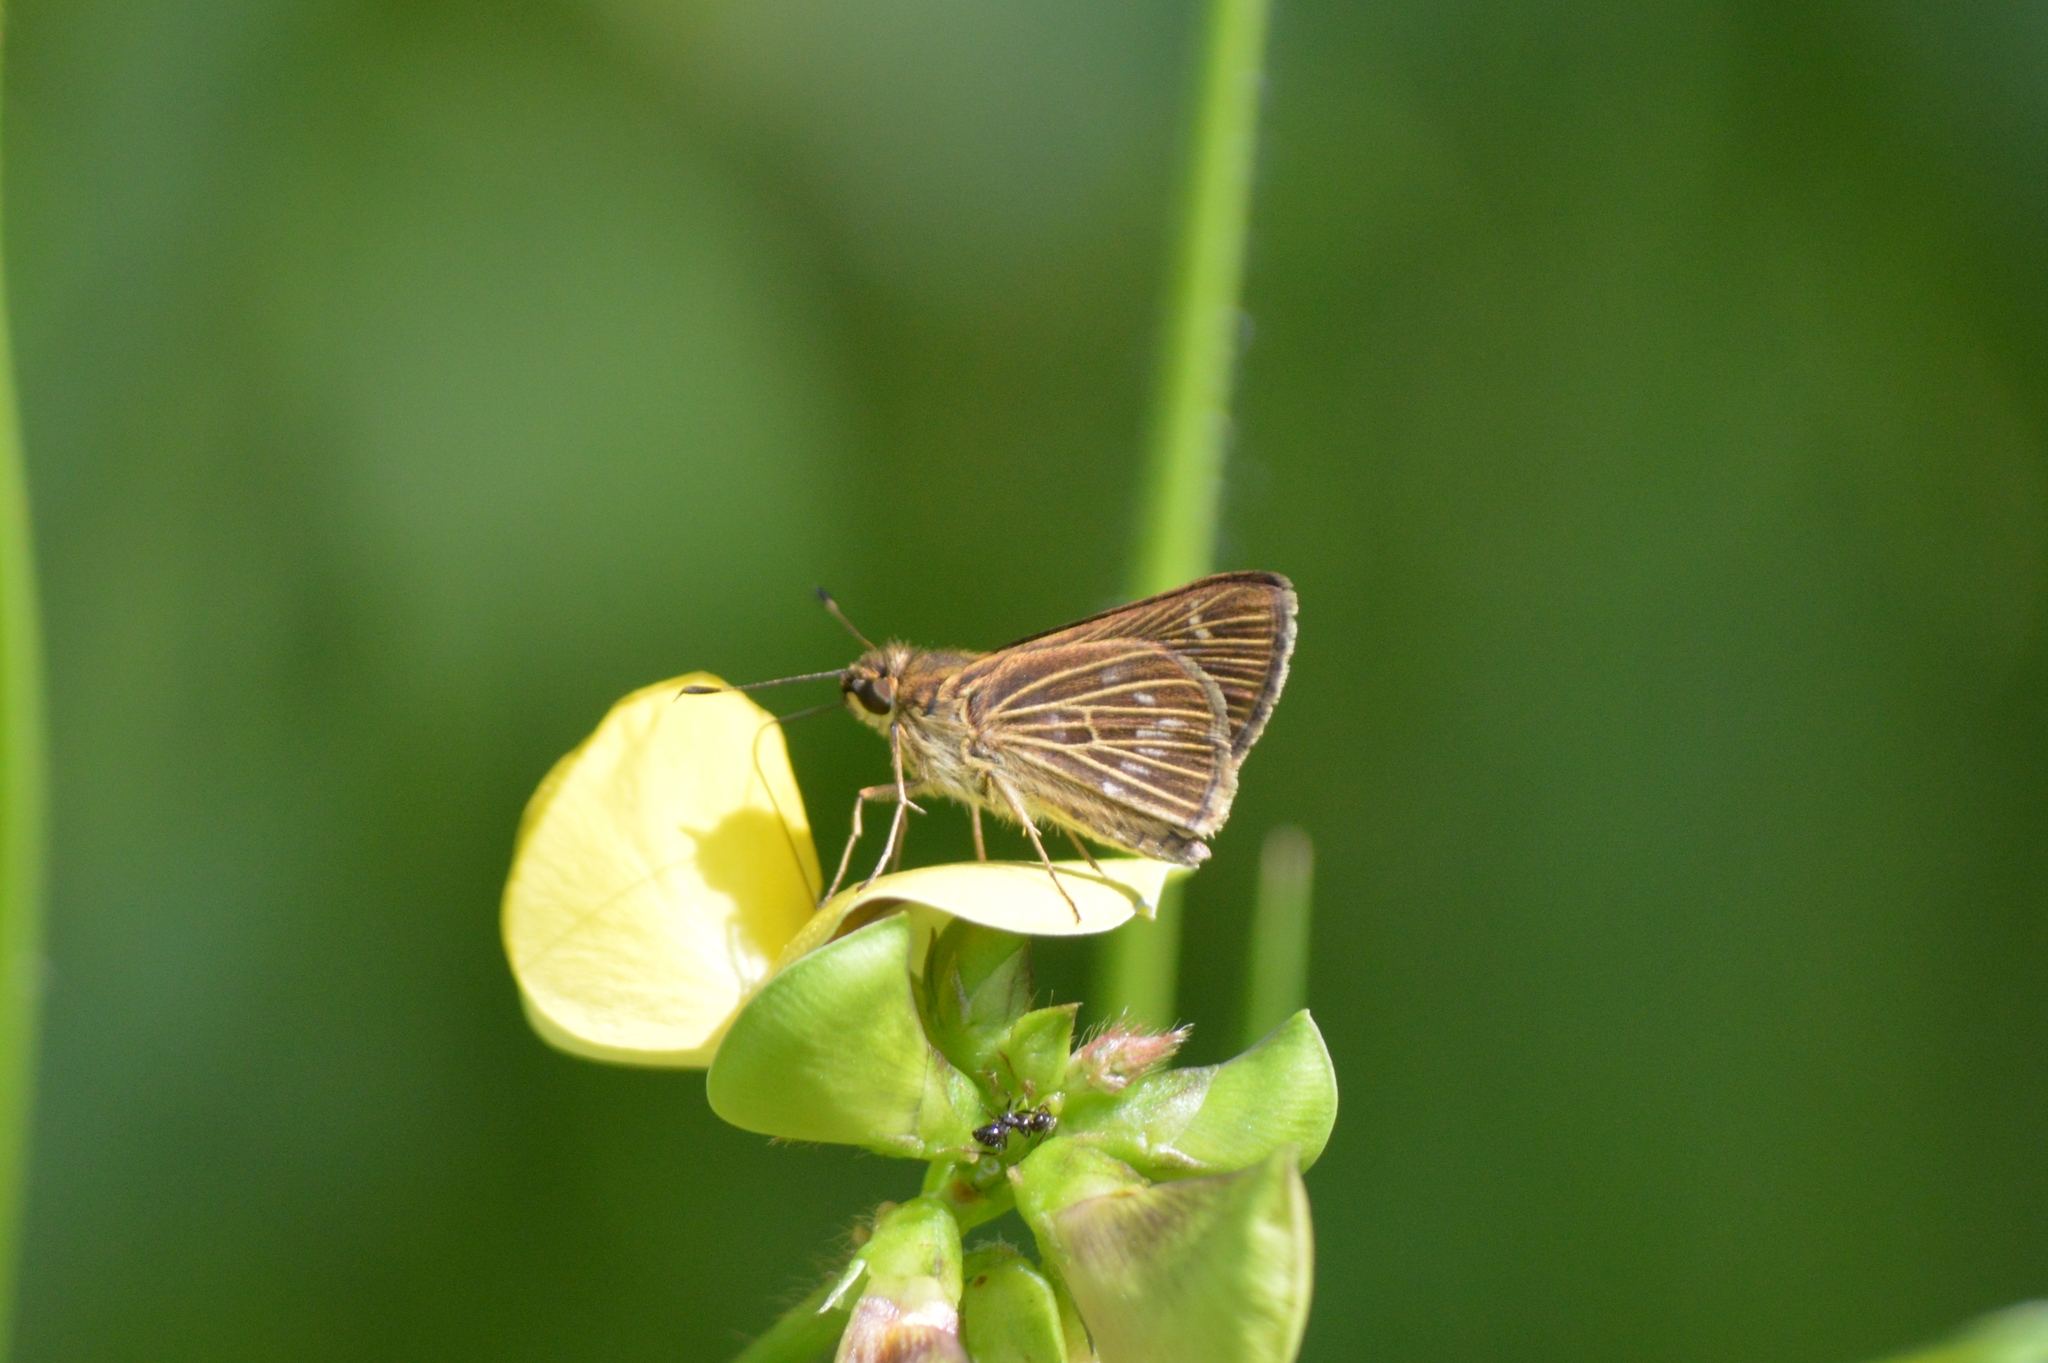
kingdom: Animalia
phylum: Arthropoda
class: Insecta
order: Lepidoptera
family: Hesperiidae
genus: Vehilius
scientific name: Vehilius stictomenes
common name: Pasture skipper
